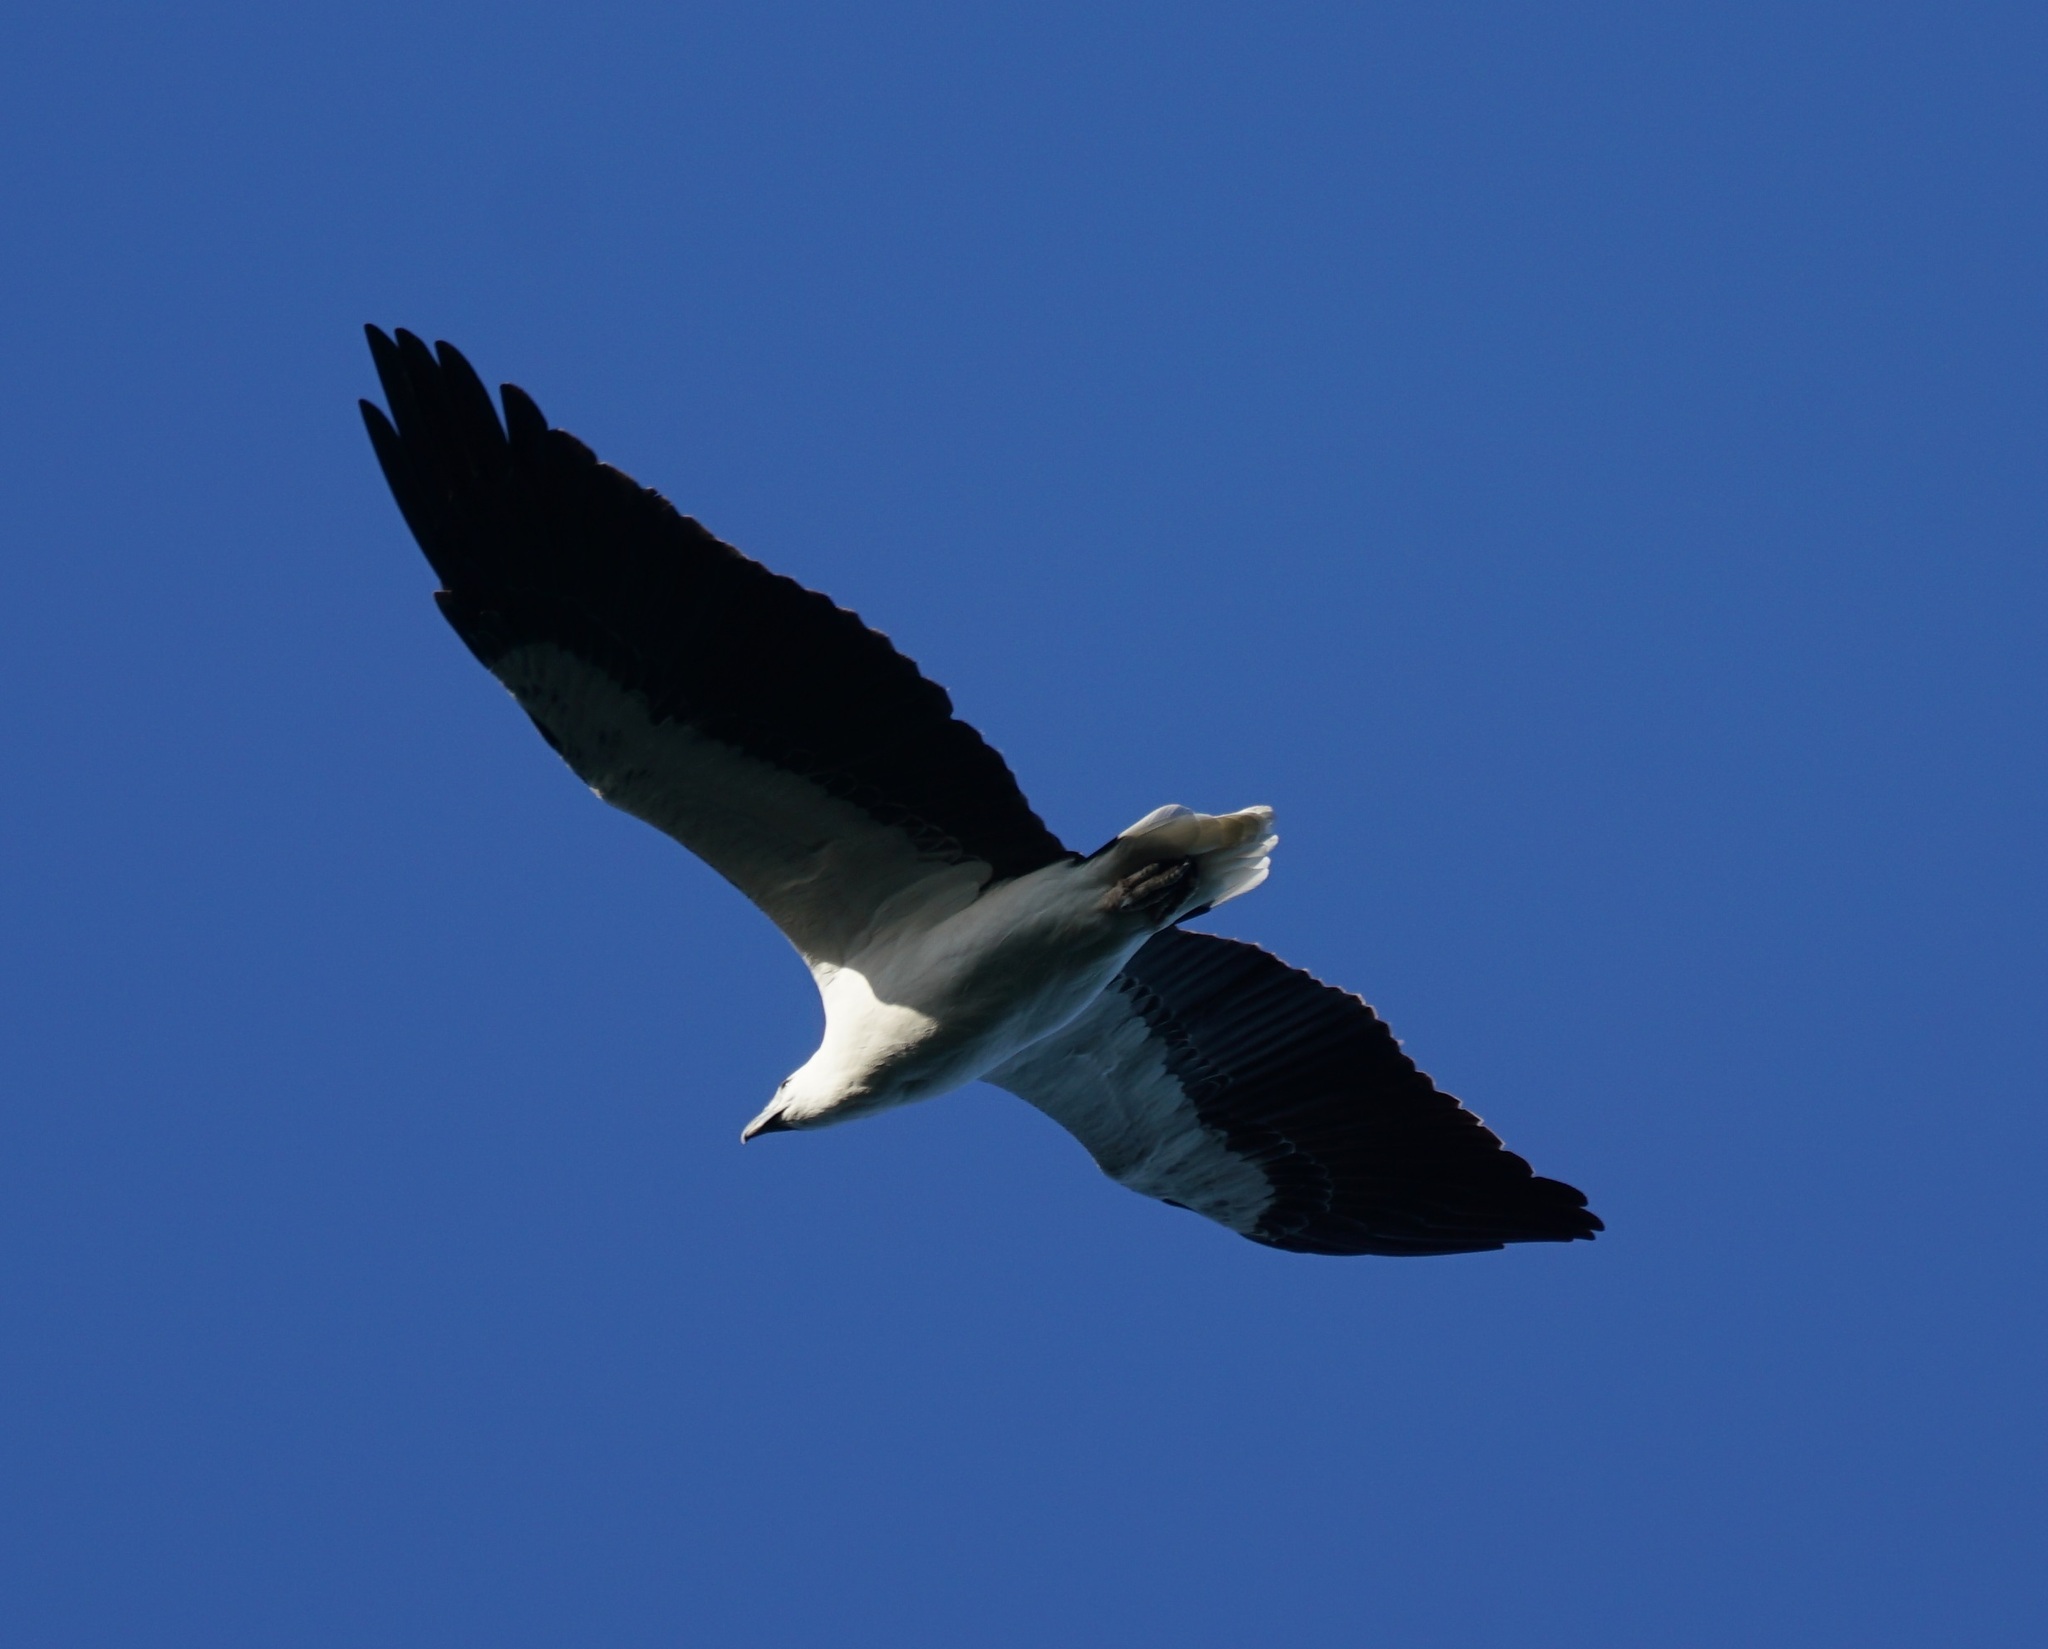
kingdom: Animalia
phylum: Chordata
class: Aves
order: Accipitriformes
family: Accipitridae
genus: Haliaeetus
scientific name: Haliaeetus leucogaster
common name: White-bellied sea eagle
